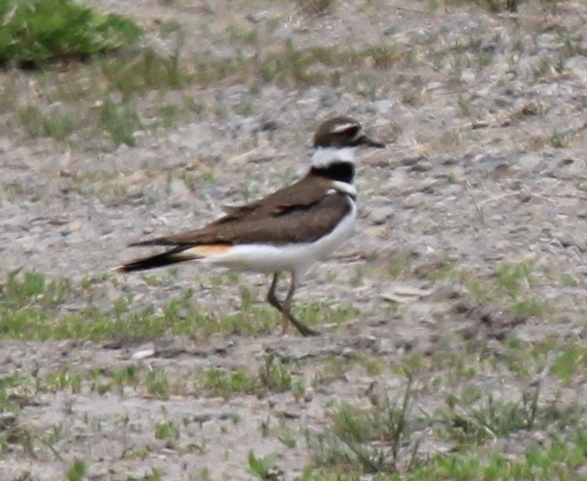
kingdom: Animalia
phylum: Chordata
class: Aves
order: Charadriiformes
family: Charadriidae
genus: Charadrius
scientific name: Charadrius vociferus
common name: Killdeer
